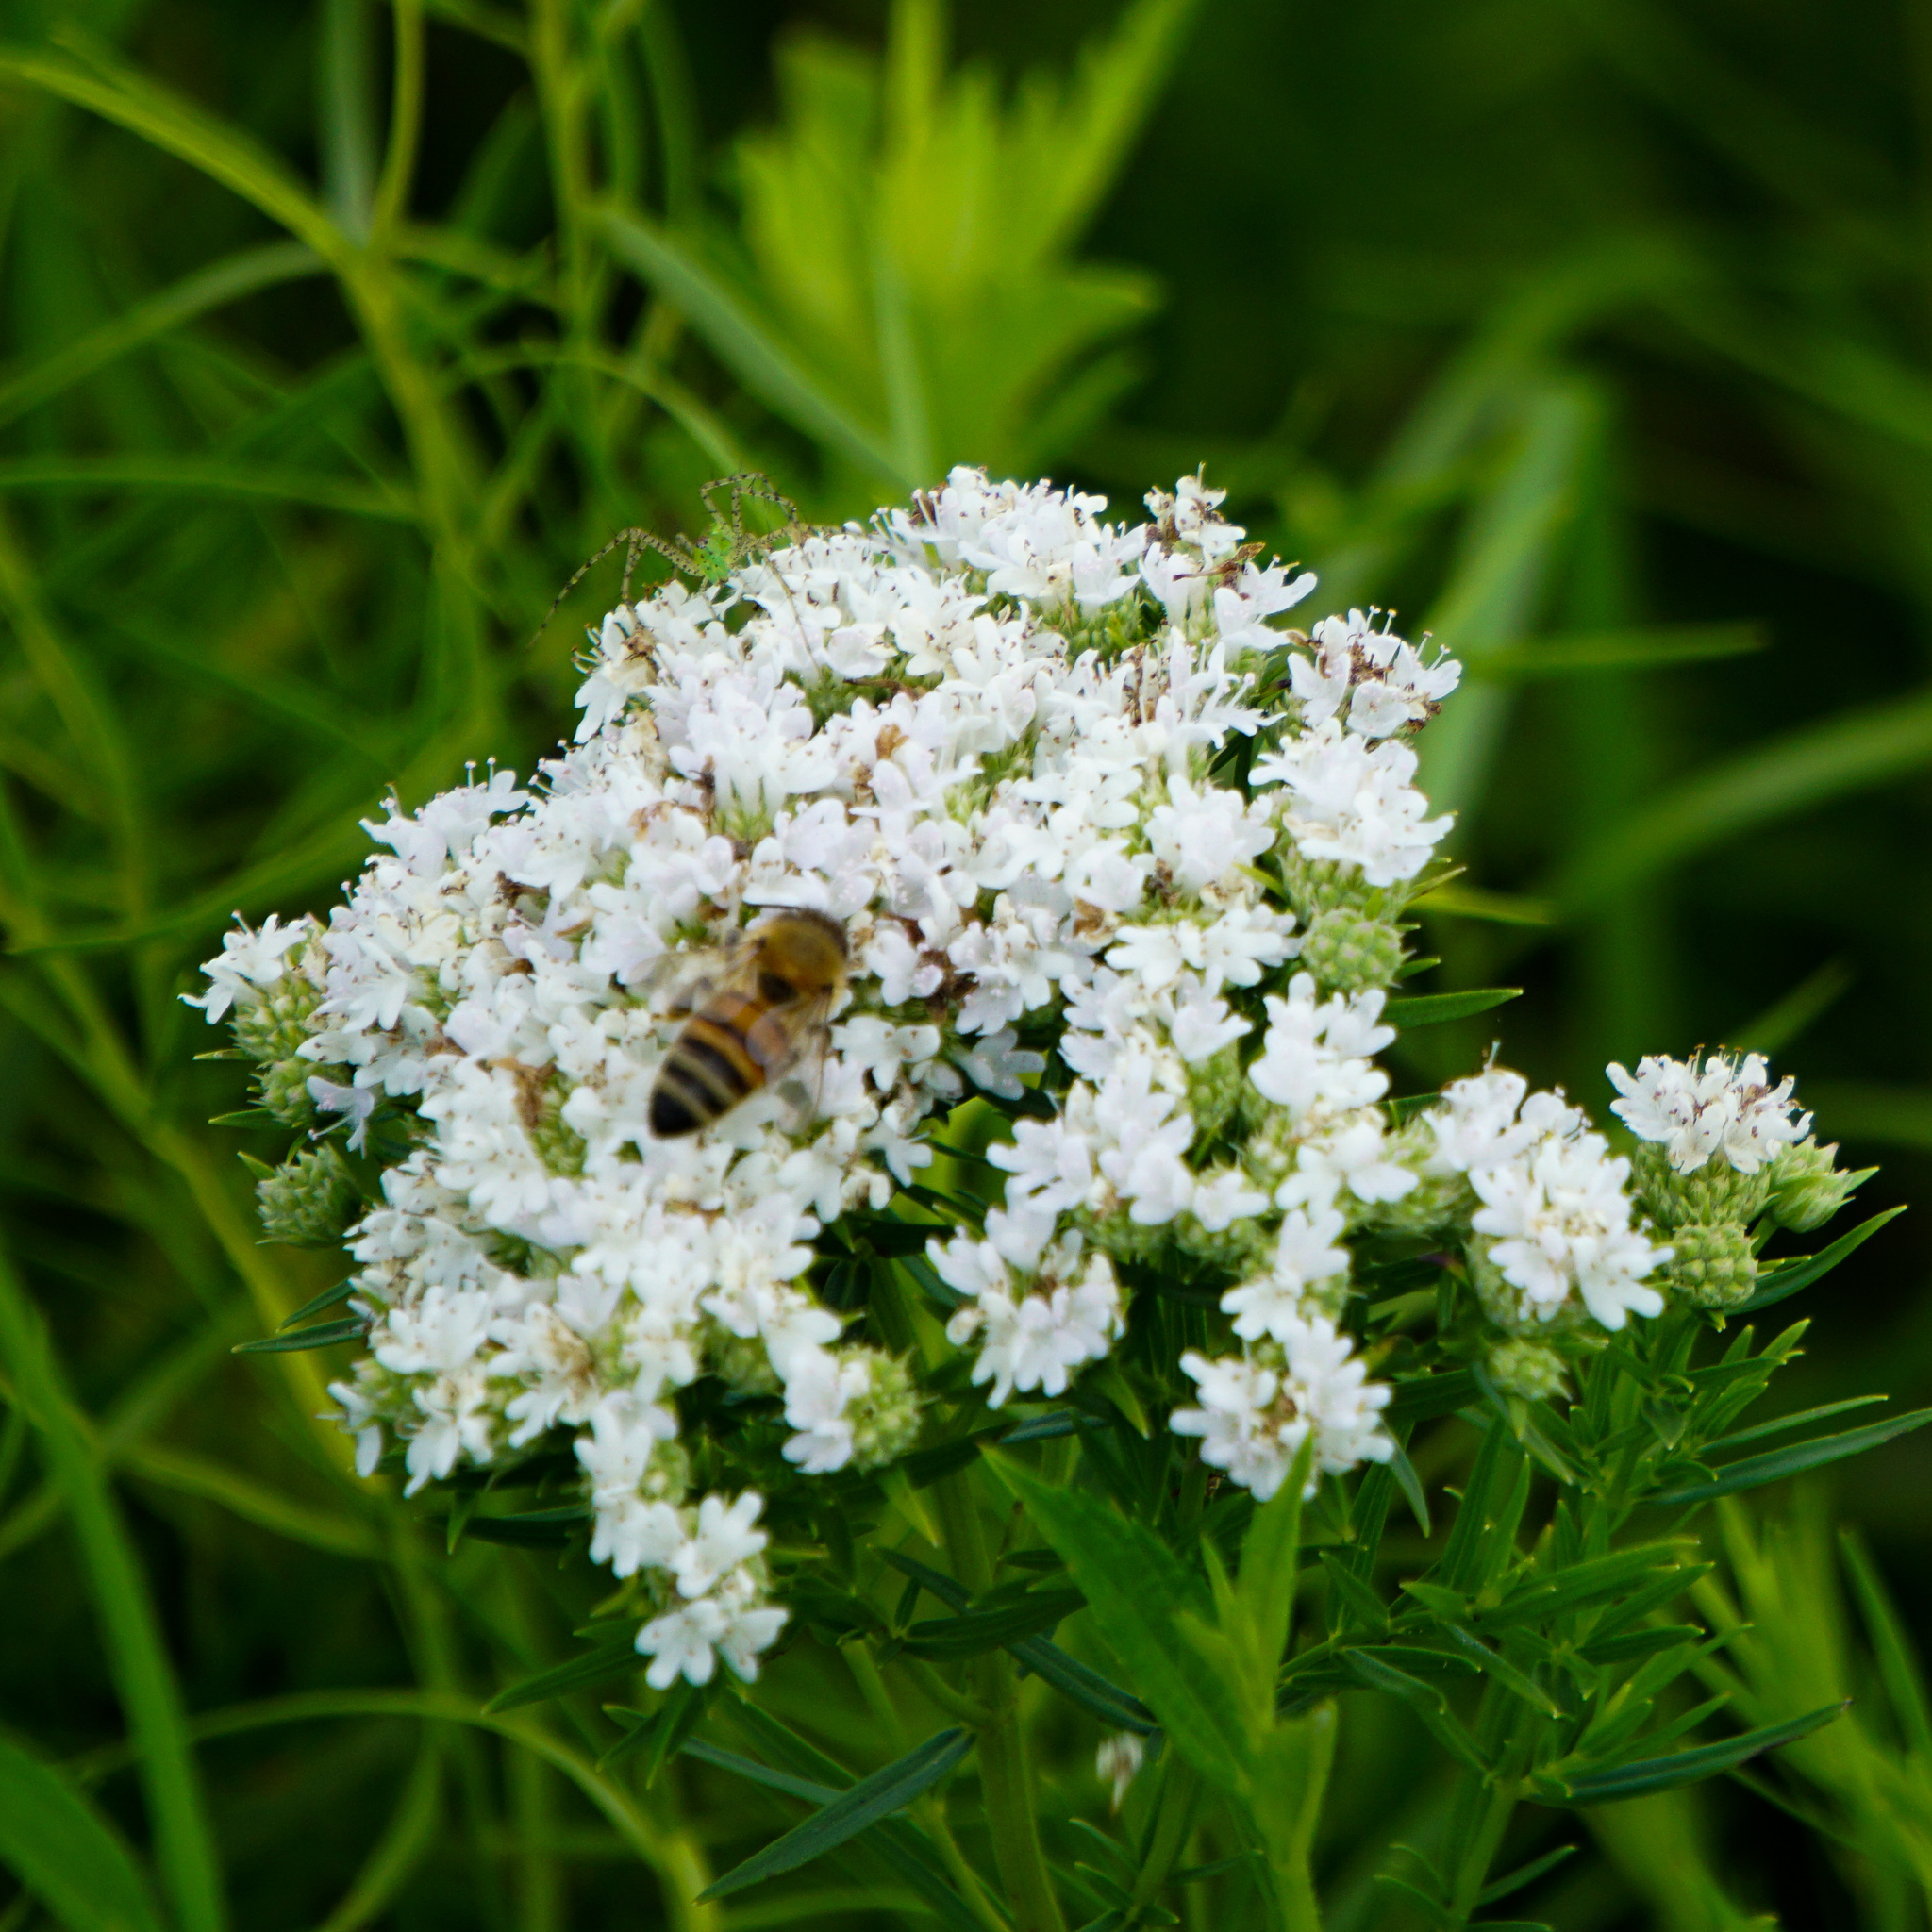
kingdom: Plantae
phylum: Tracheophyta
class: Magnoliopsida
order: Lamiales
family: Lamiaceae
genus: Pycnanthemum
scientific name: Pycnanthemum tenuifolium
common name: Narrow-leaf mountain-mint
